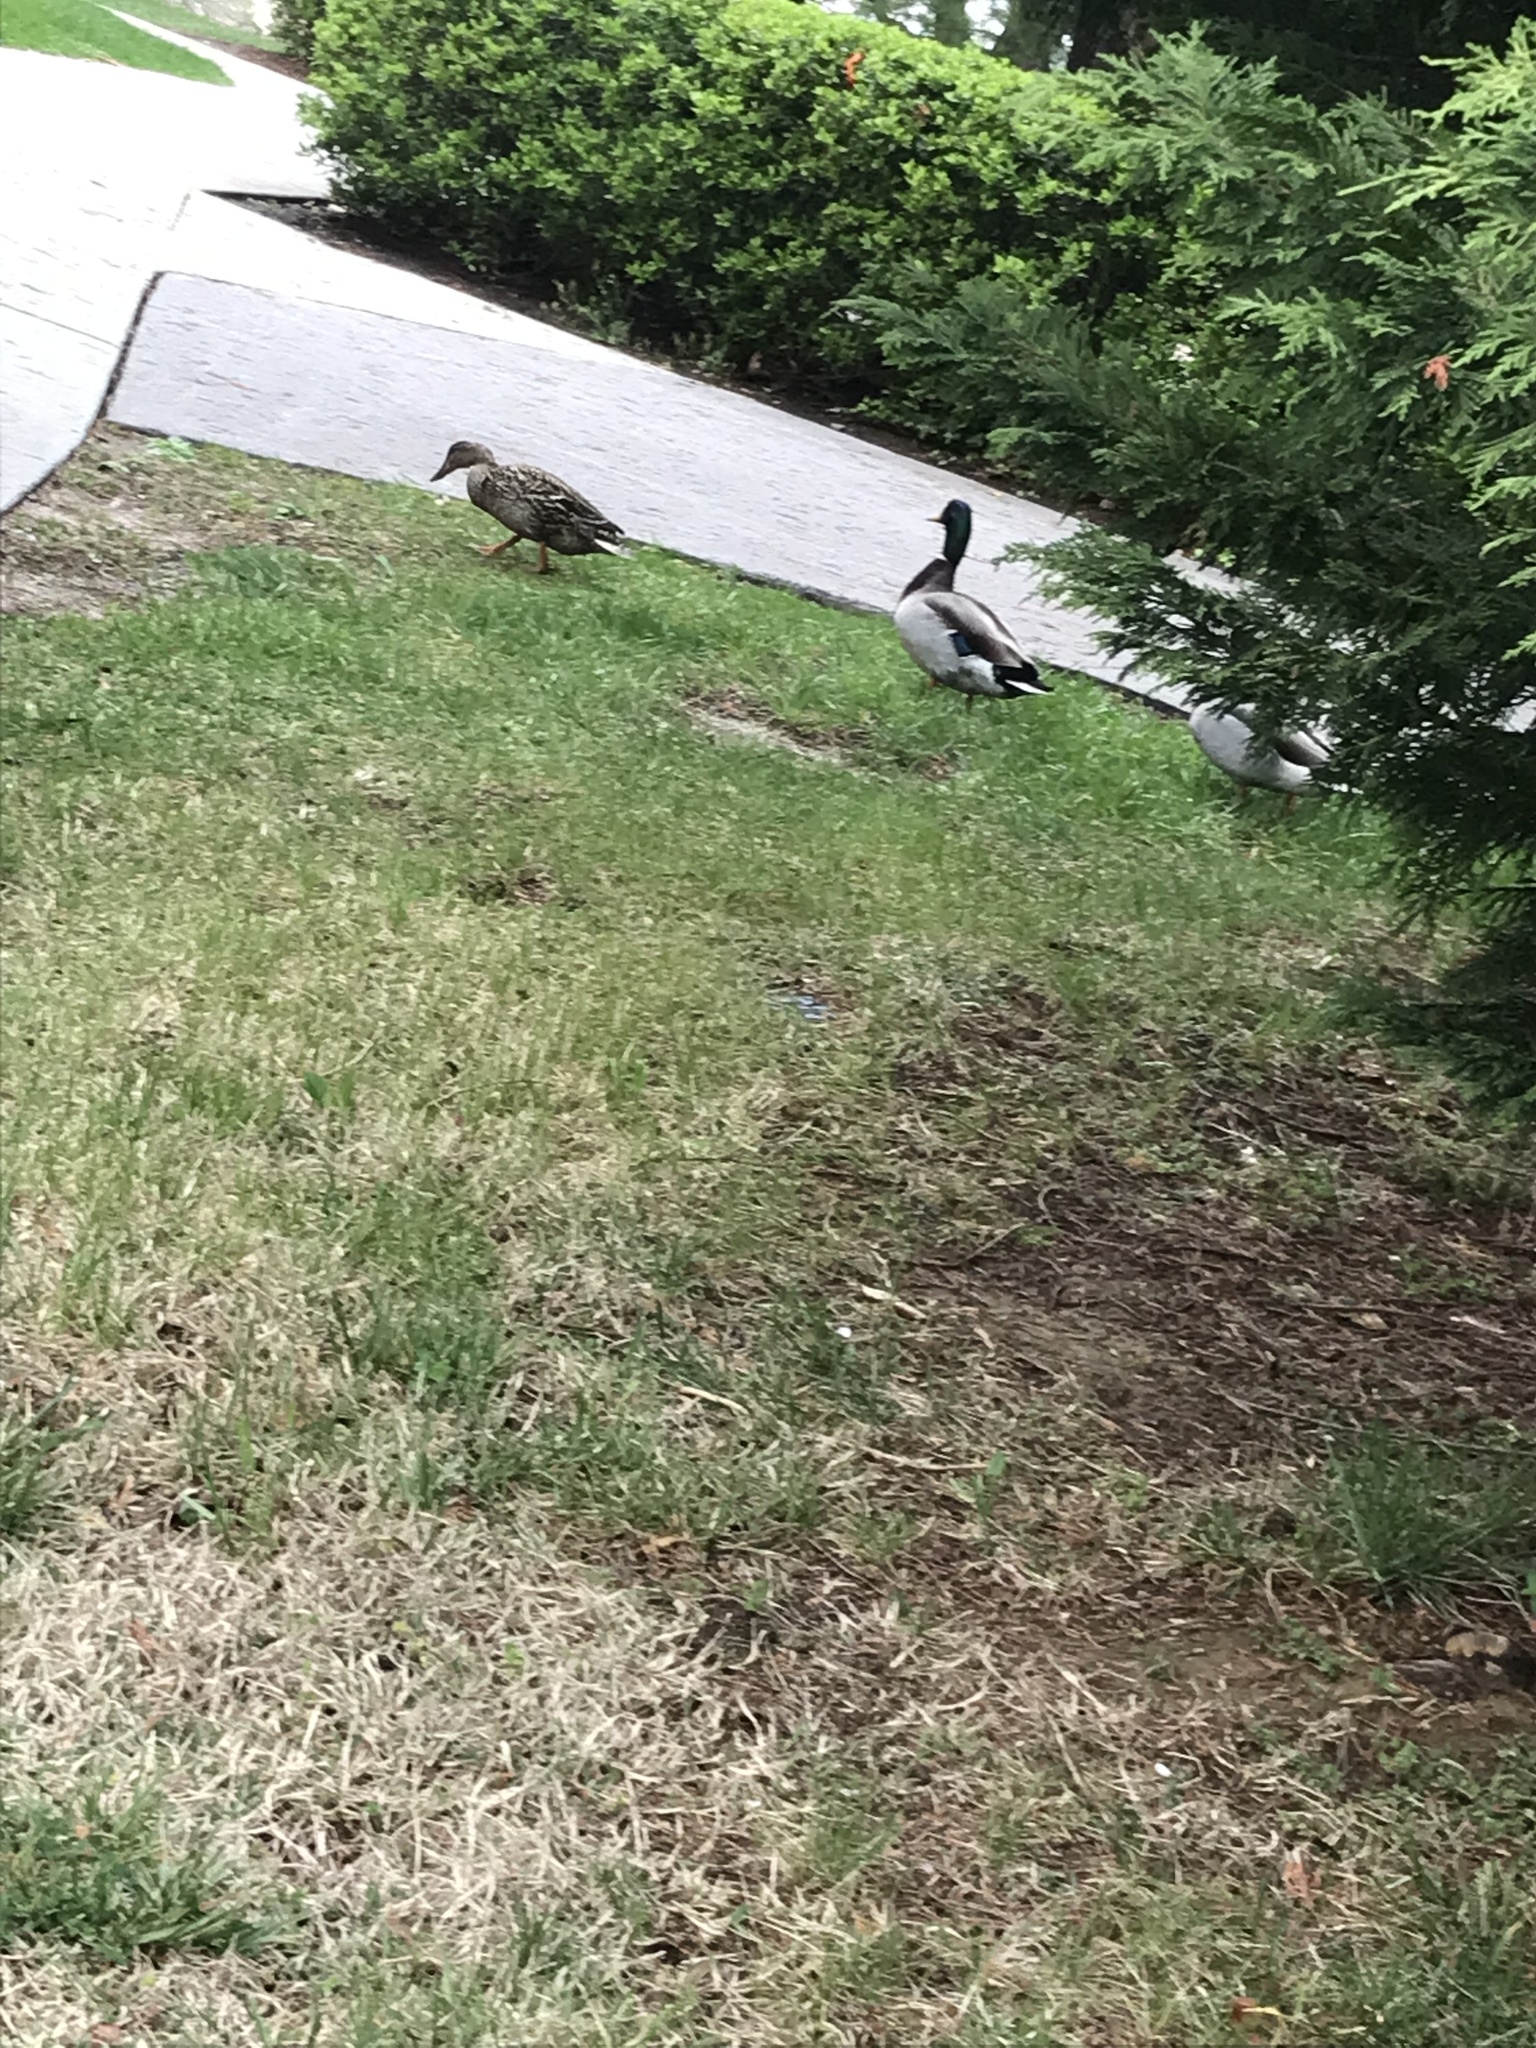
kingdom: Animalia
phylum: Chordata
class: Aves
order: Anseriformes
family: Anatidae
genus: Anas
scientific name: Anas platyrhynchos
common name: Mallard
